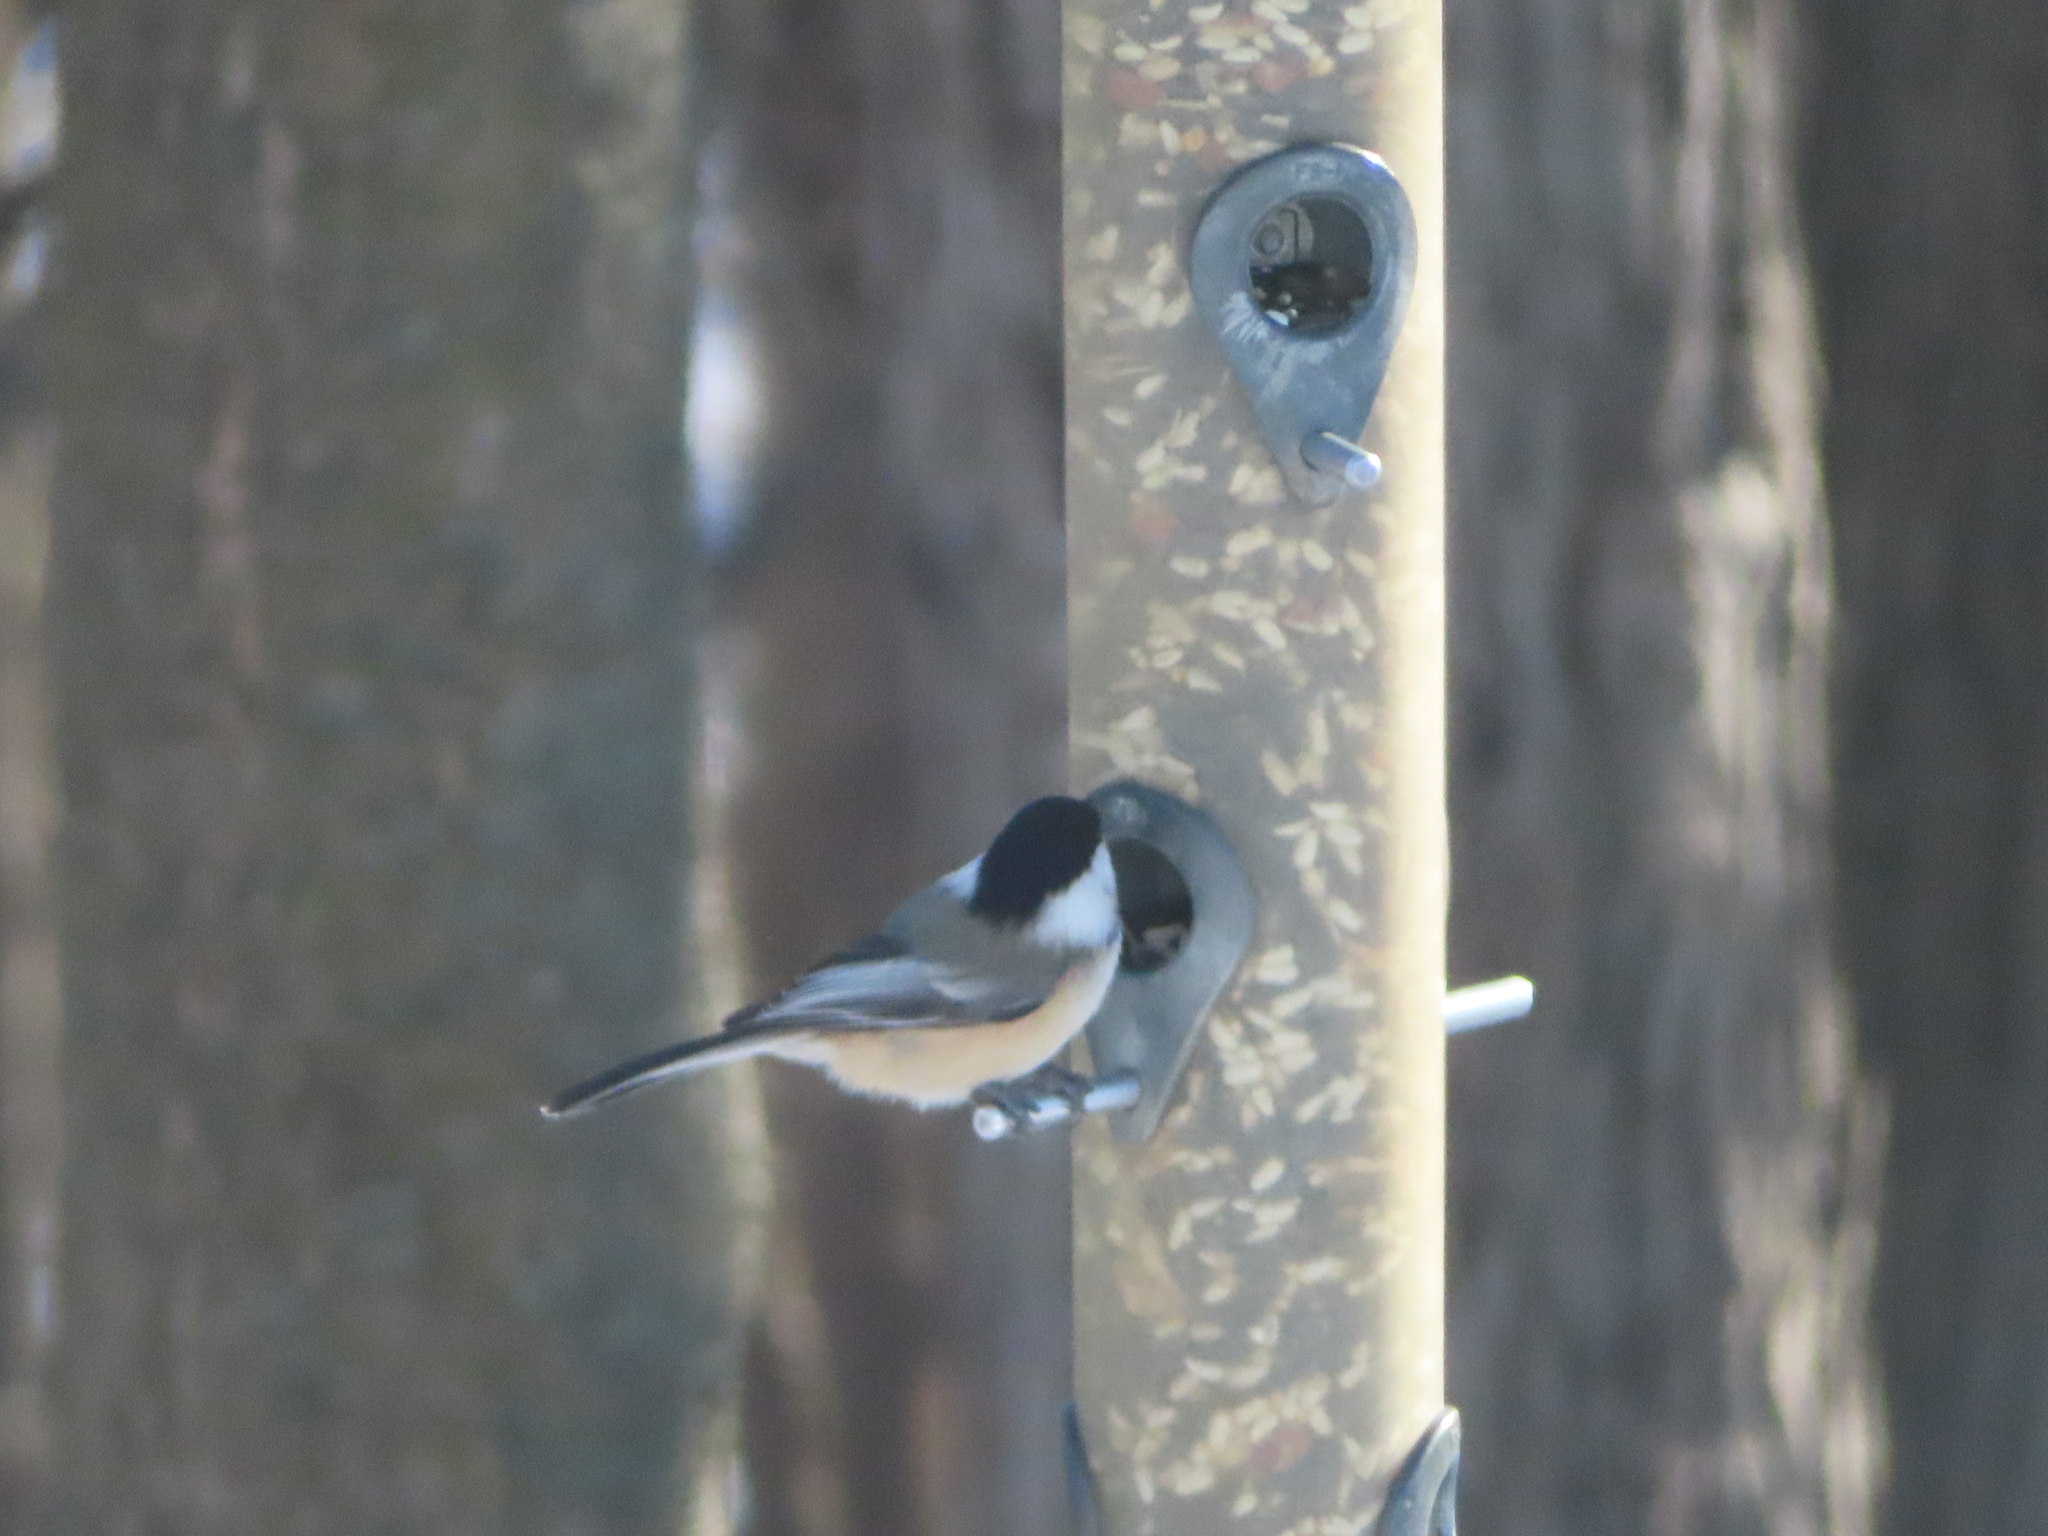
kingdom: Animalia
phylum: Chordata
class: Aves
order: Passeriformes
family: Paridae
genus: Poecile
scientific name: Poecile atricapillus
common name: Black-capped chickadee
